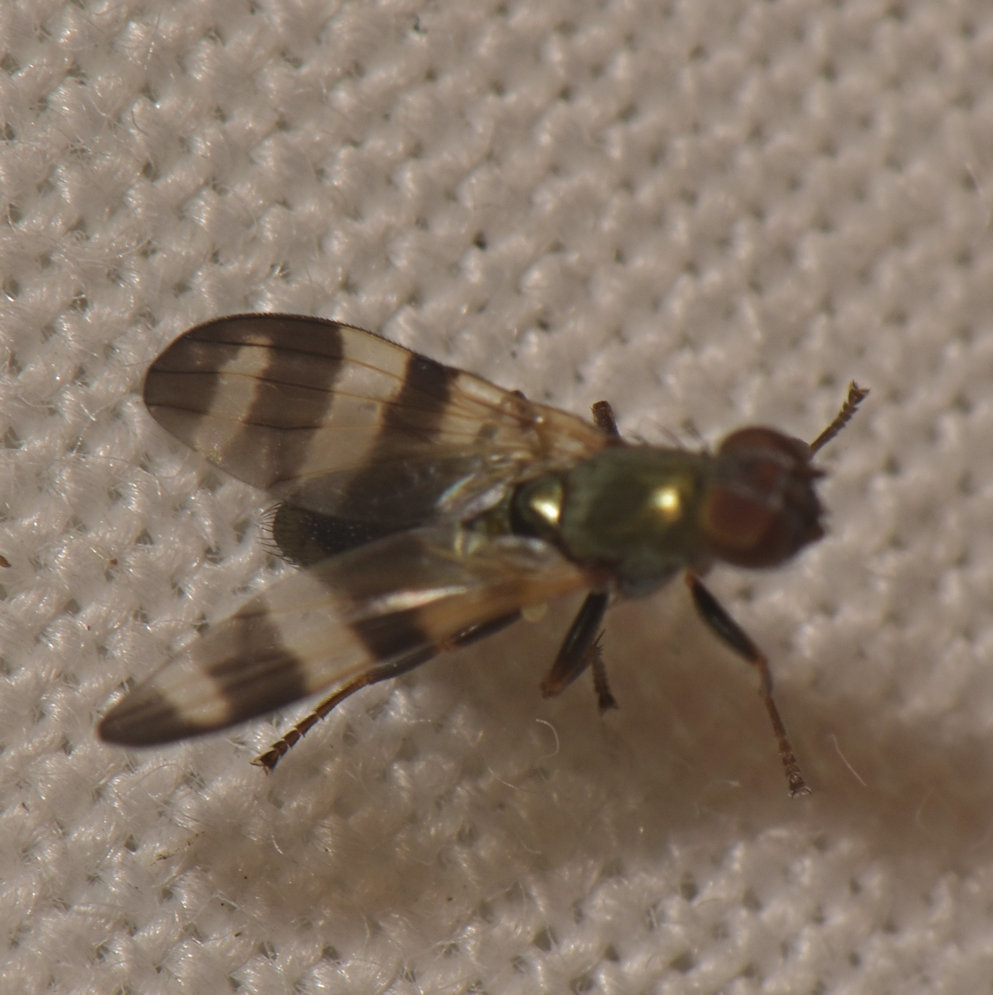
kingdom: Animalia
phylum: Arthropoda
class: Insecta
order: Diptera
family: Ulidiidae
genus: Chaetopsis
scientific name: Chaetopsis massyla
